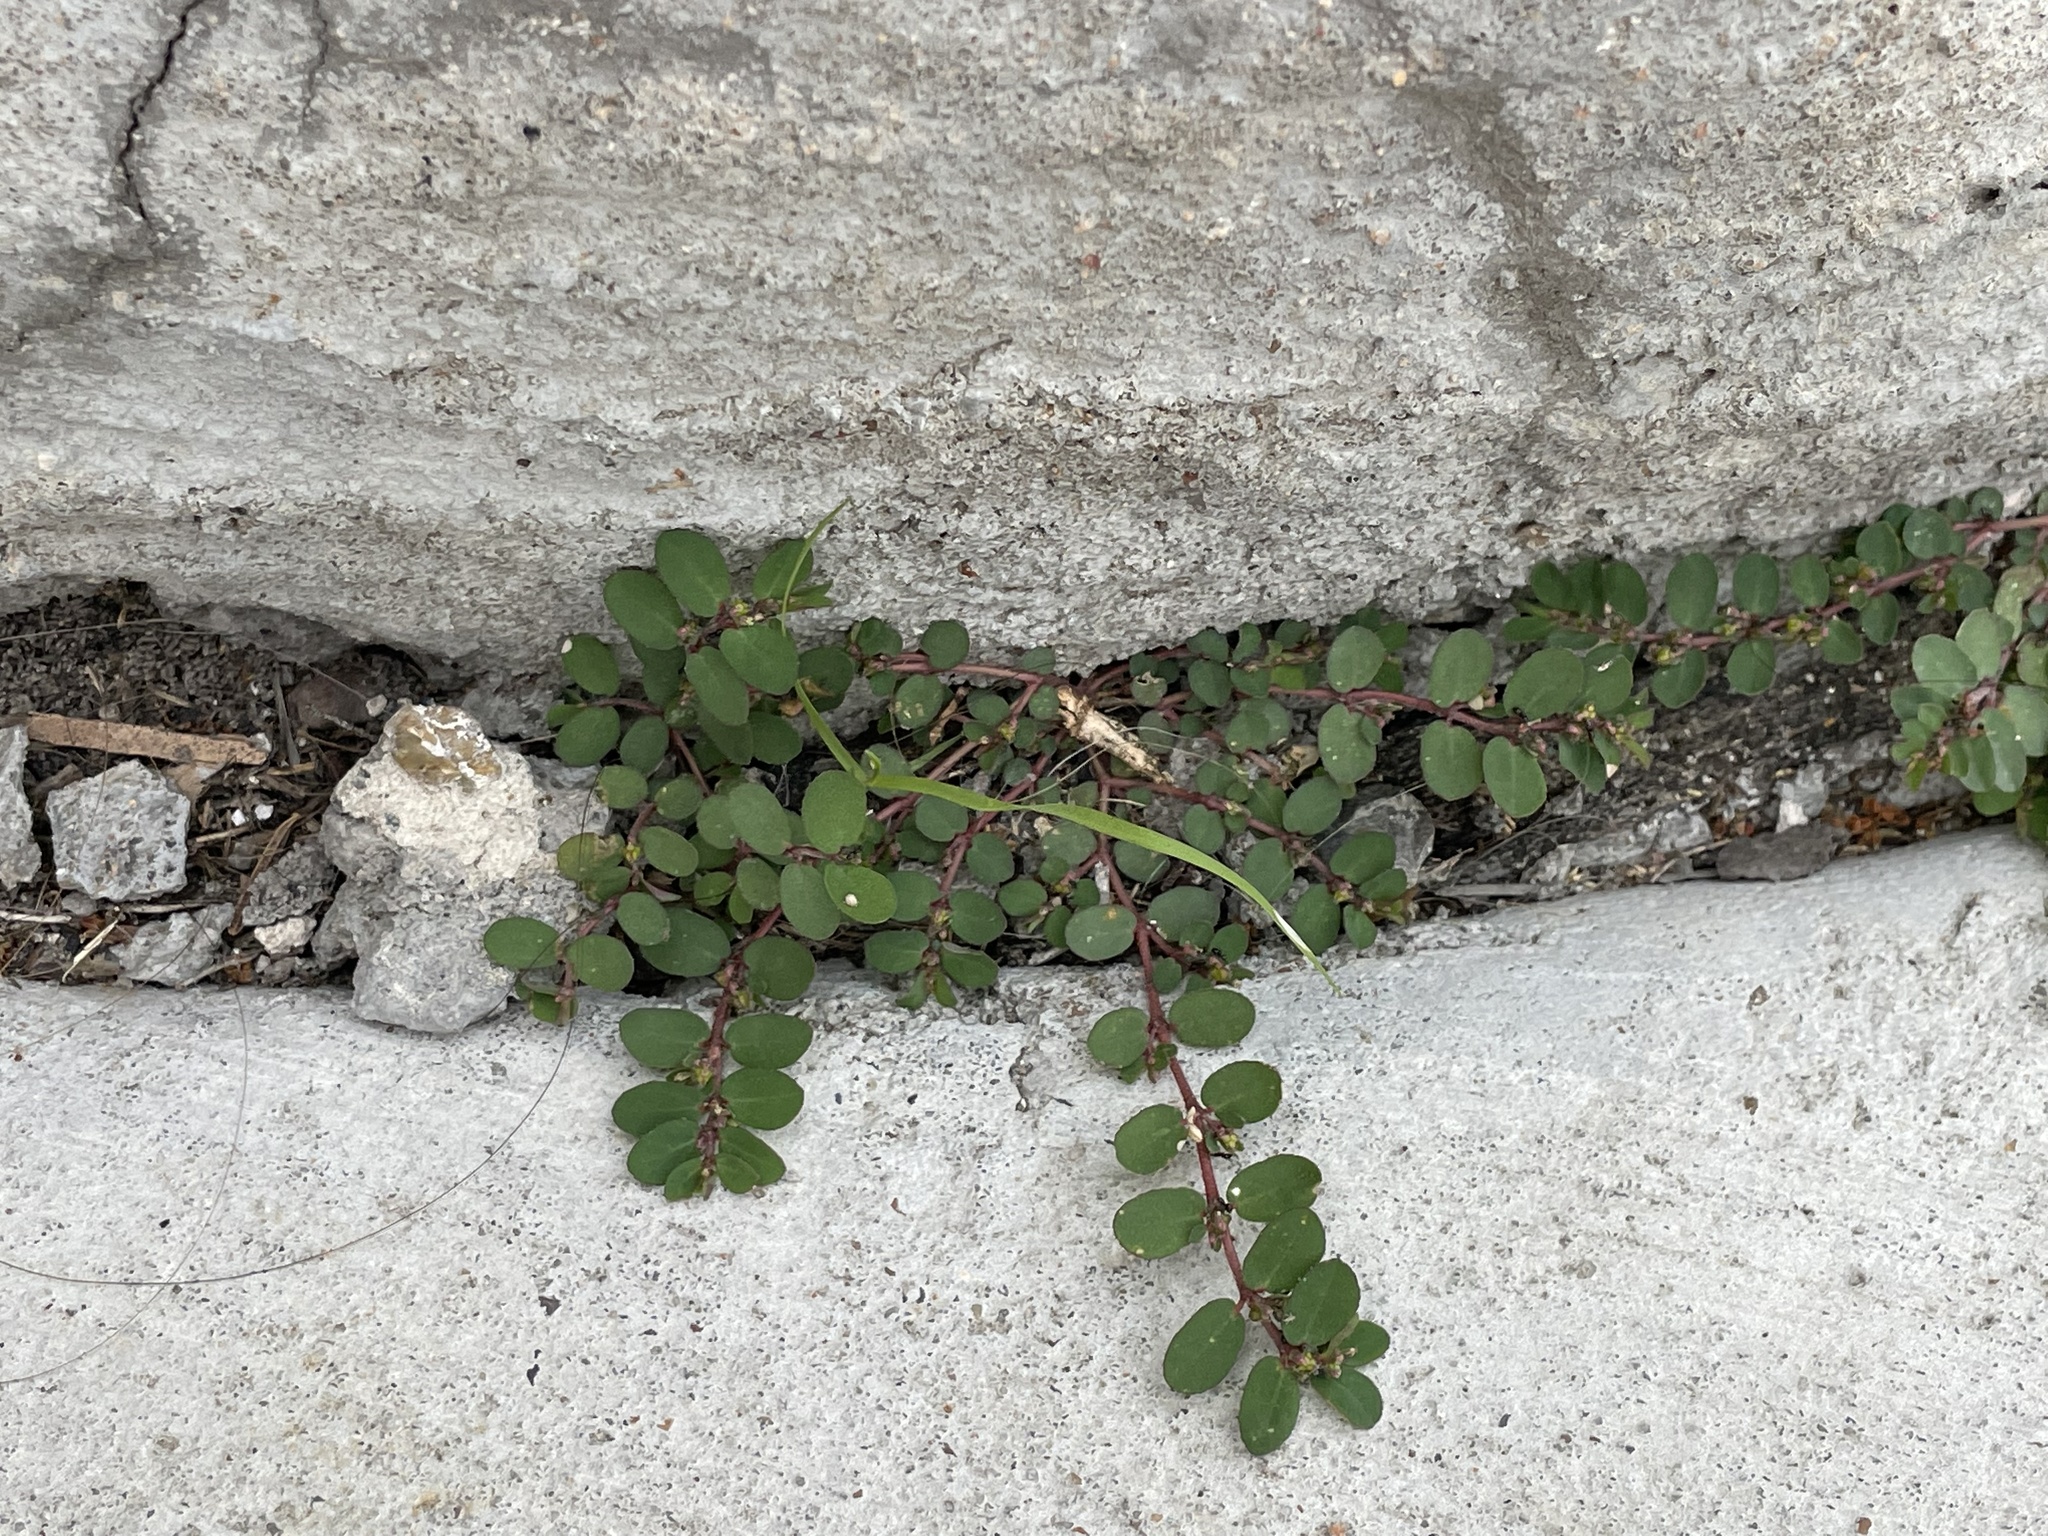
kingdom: Plantae
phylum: Tracheophyta
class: Magnoliopsida
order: Malpighiales
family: Euphorbiaceae
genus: Euphorbia
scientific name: Euphorbia prostrata
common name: Prostrate sandmat
